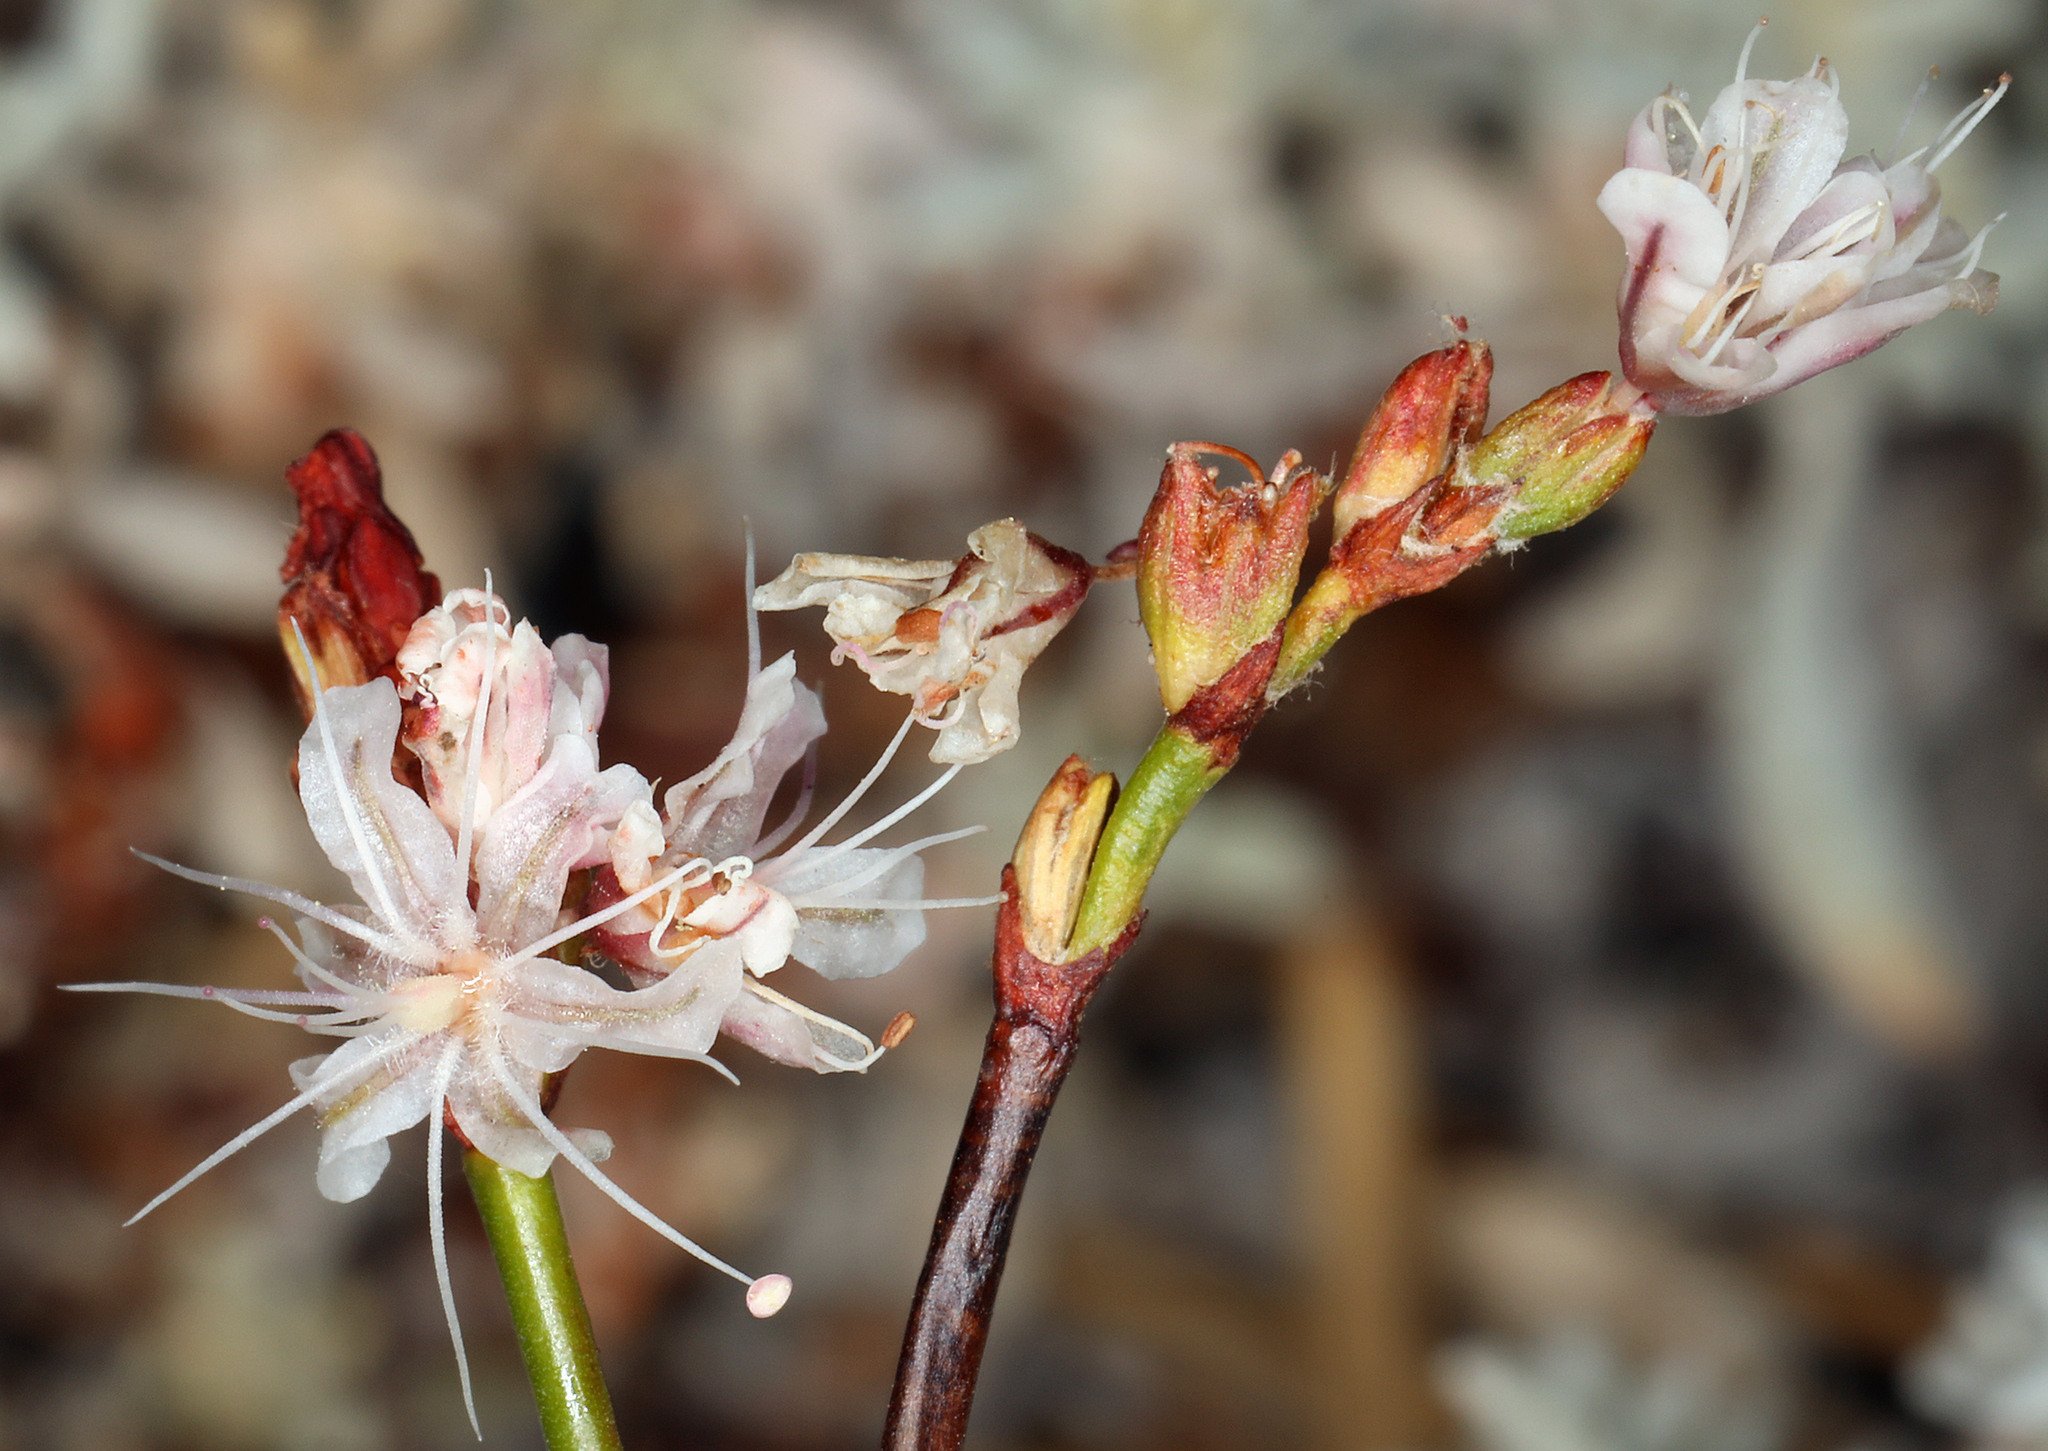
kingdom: Plantae
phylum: Tracheophyta
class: Magnoliopsida
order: Caryophyllales
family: Polygonaceae
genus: Eriogonum
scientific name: Eriogonum wrightii
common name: Bastard-sage
